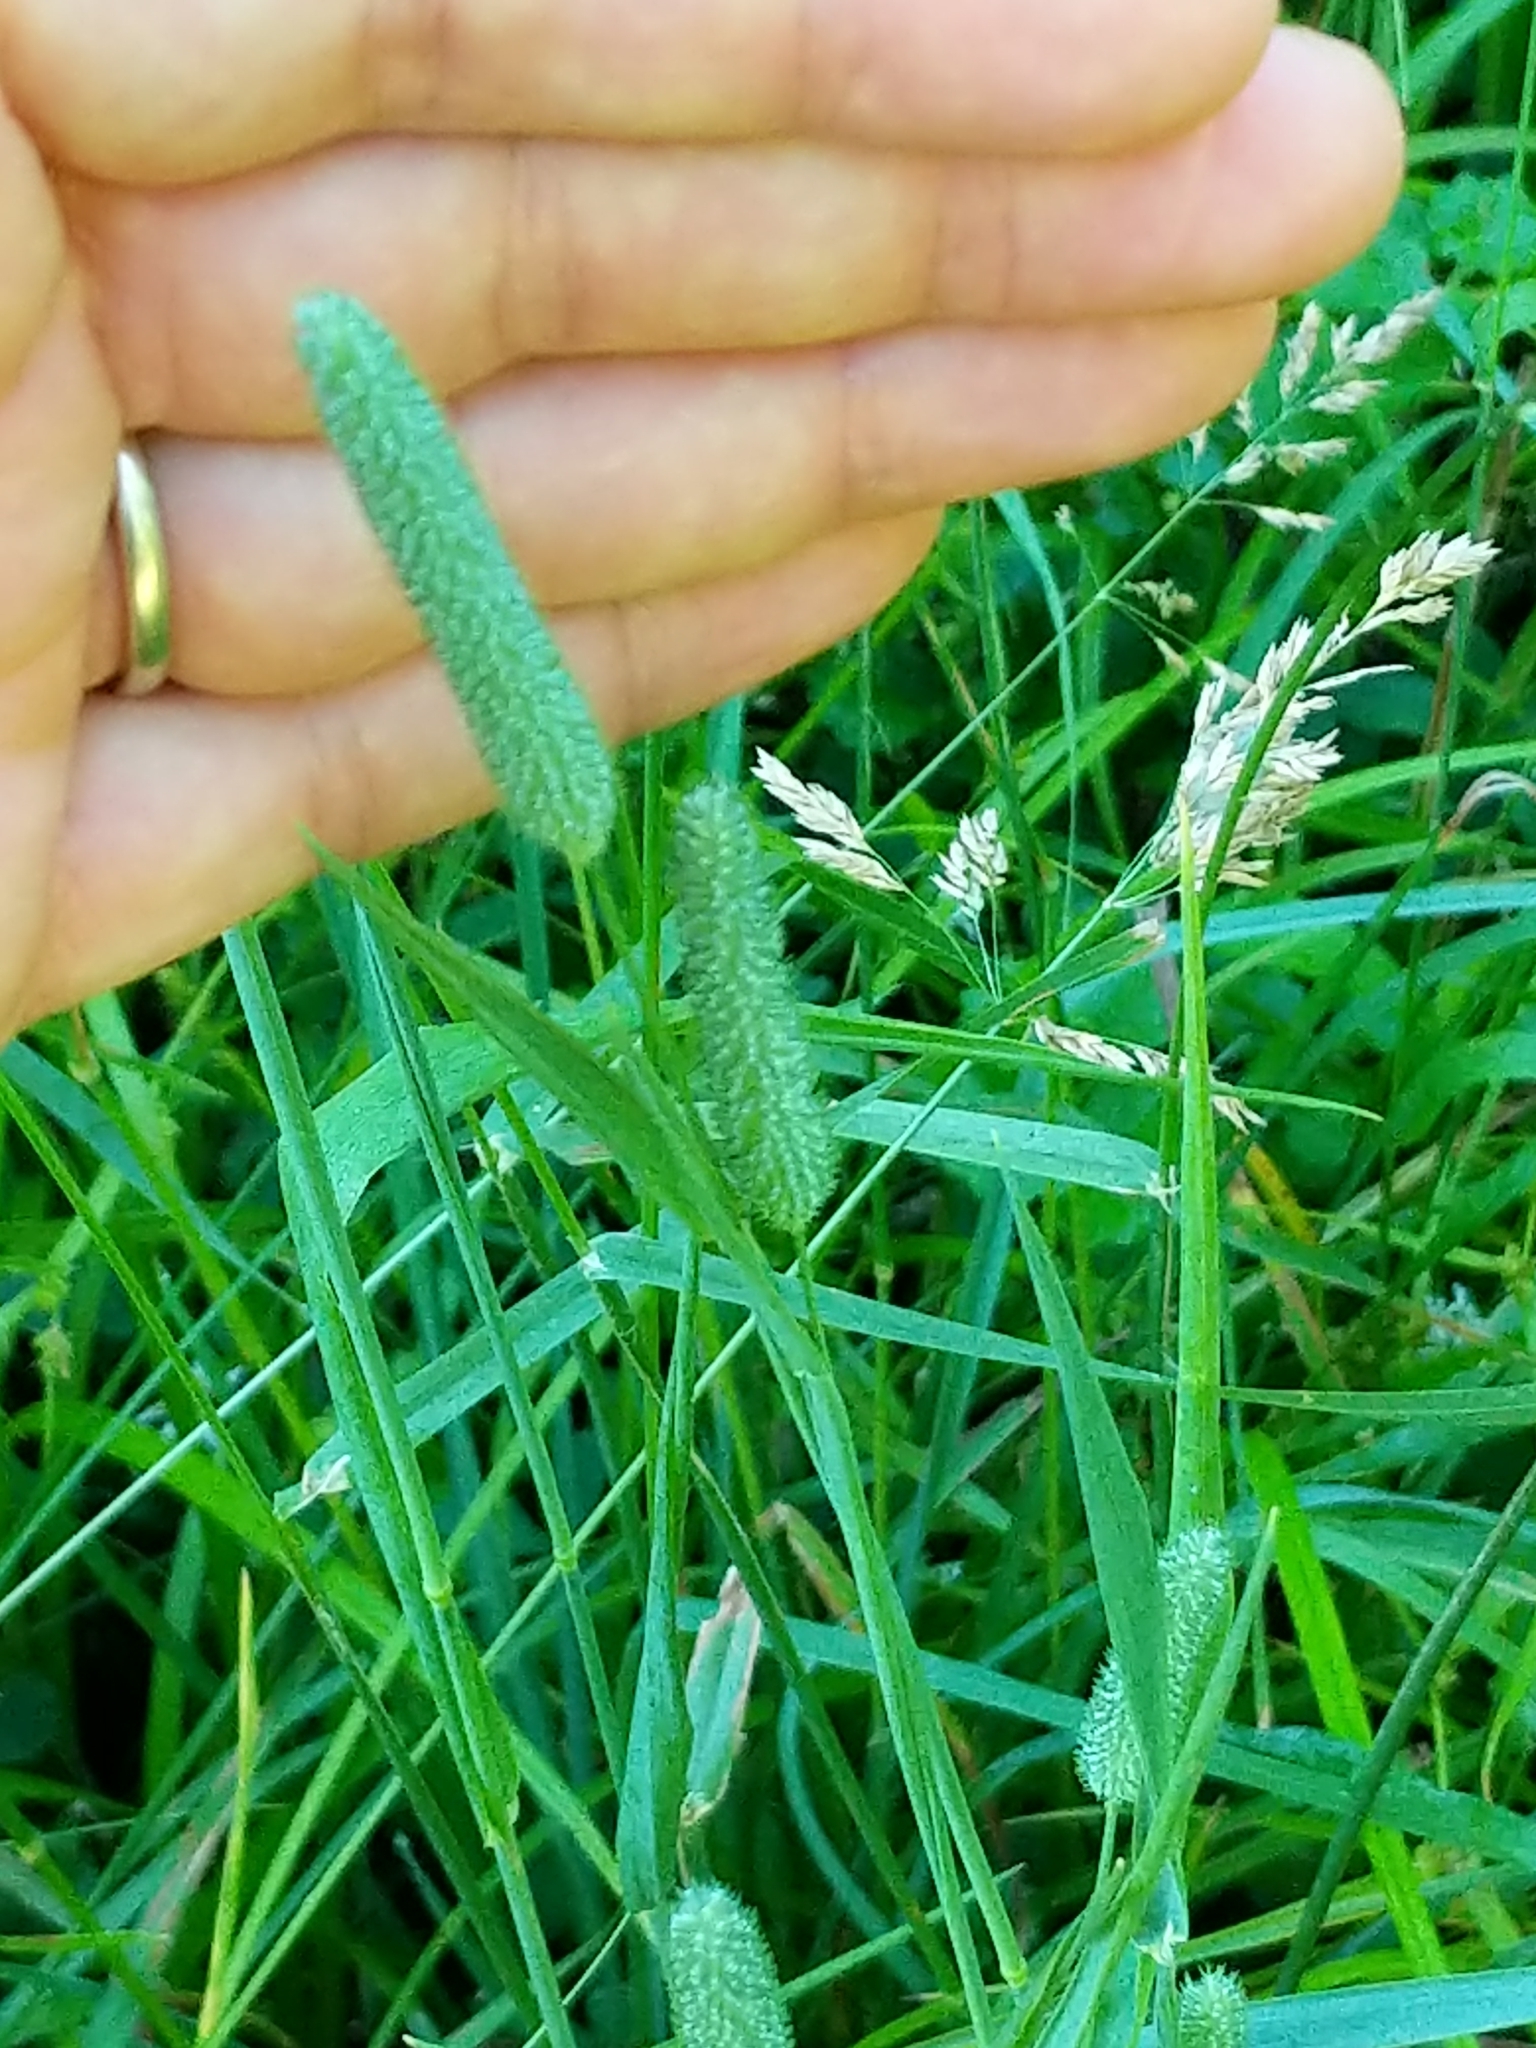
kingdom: Plantae
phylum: Tracheophyta
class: Liliopsida
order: Poales
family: Poaceae
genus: Phleum
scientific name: Phleum pratense
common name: Timothy grass
